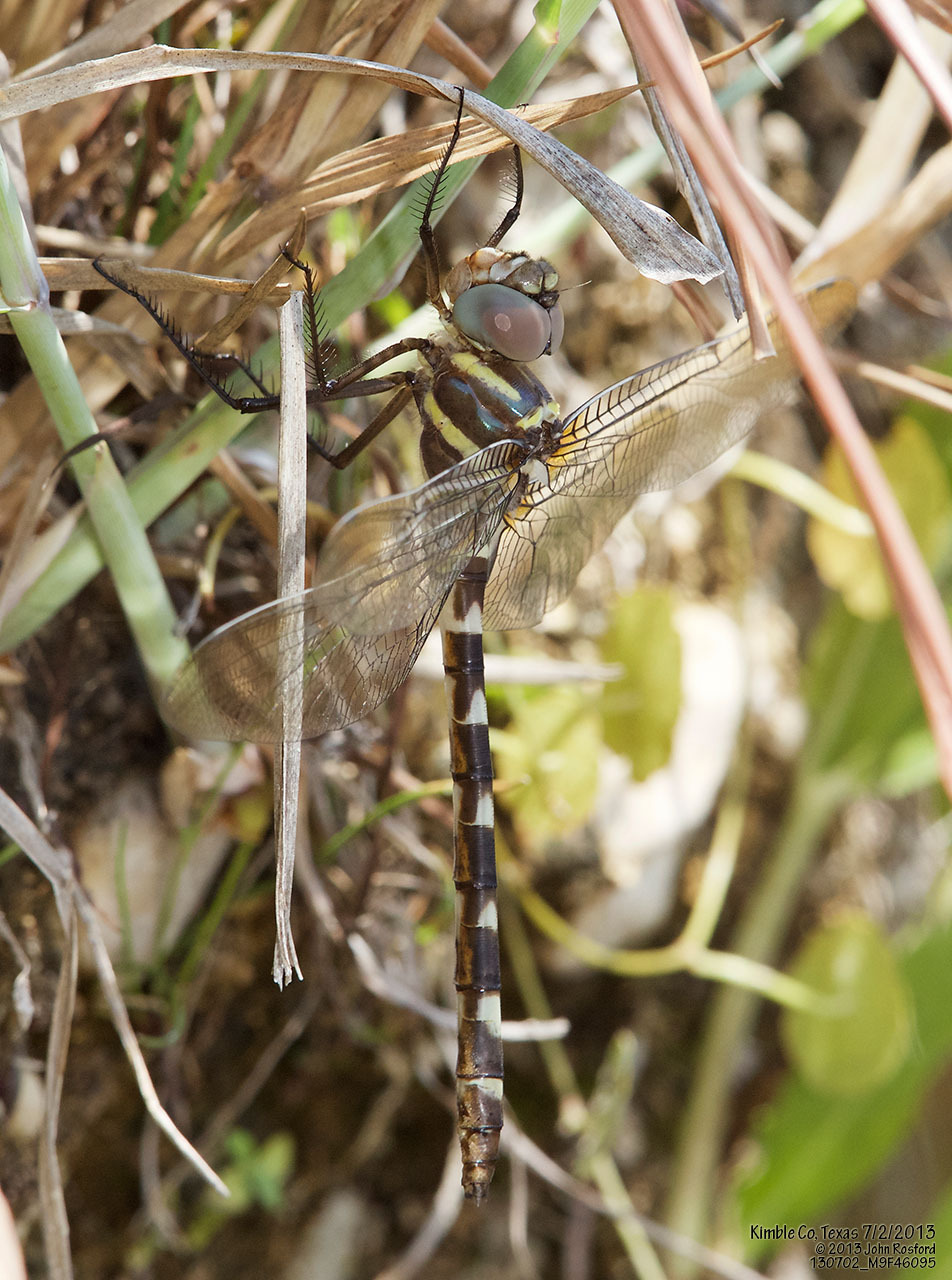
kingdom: Animalia
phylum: Arthropoda
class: Insecta
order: Odonata
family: Macromiidae
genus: Macromia
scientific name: Macromia annulata
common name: Bronzed river cruiser
